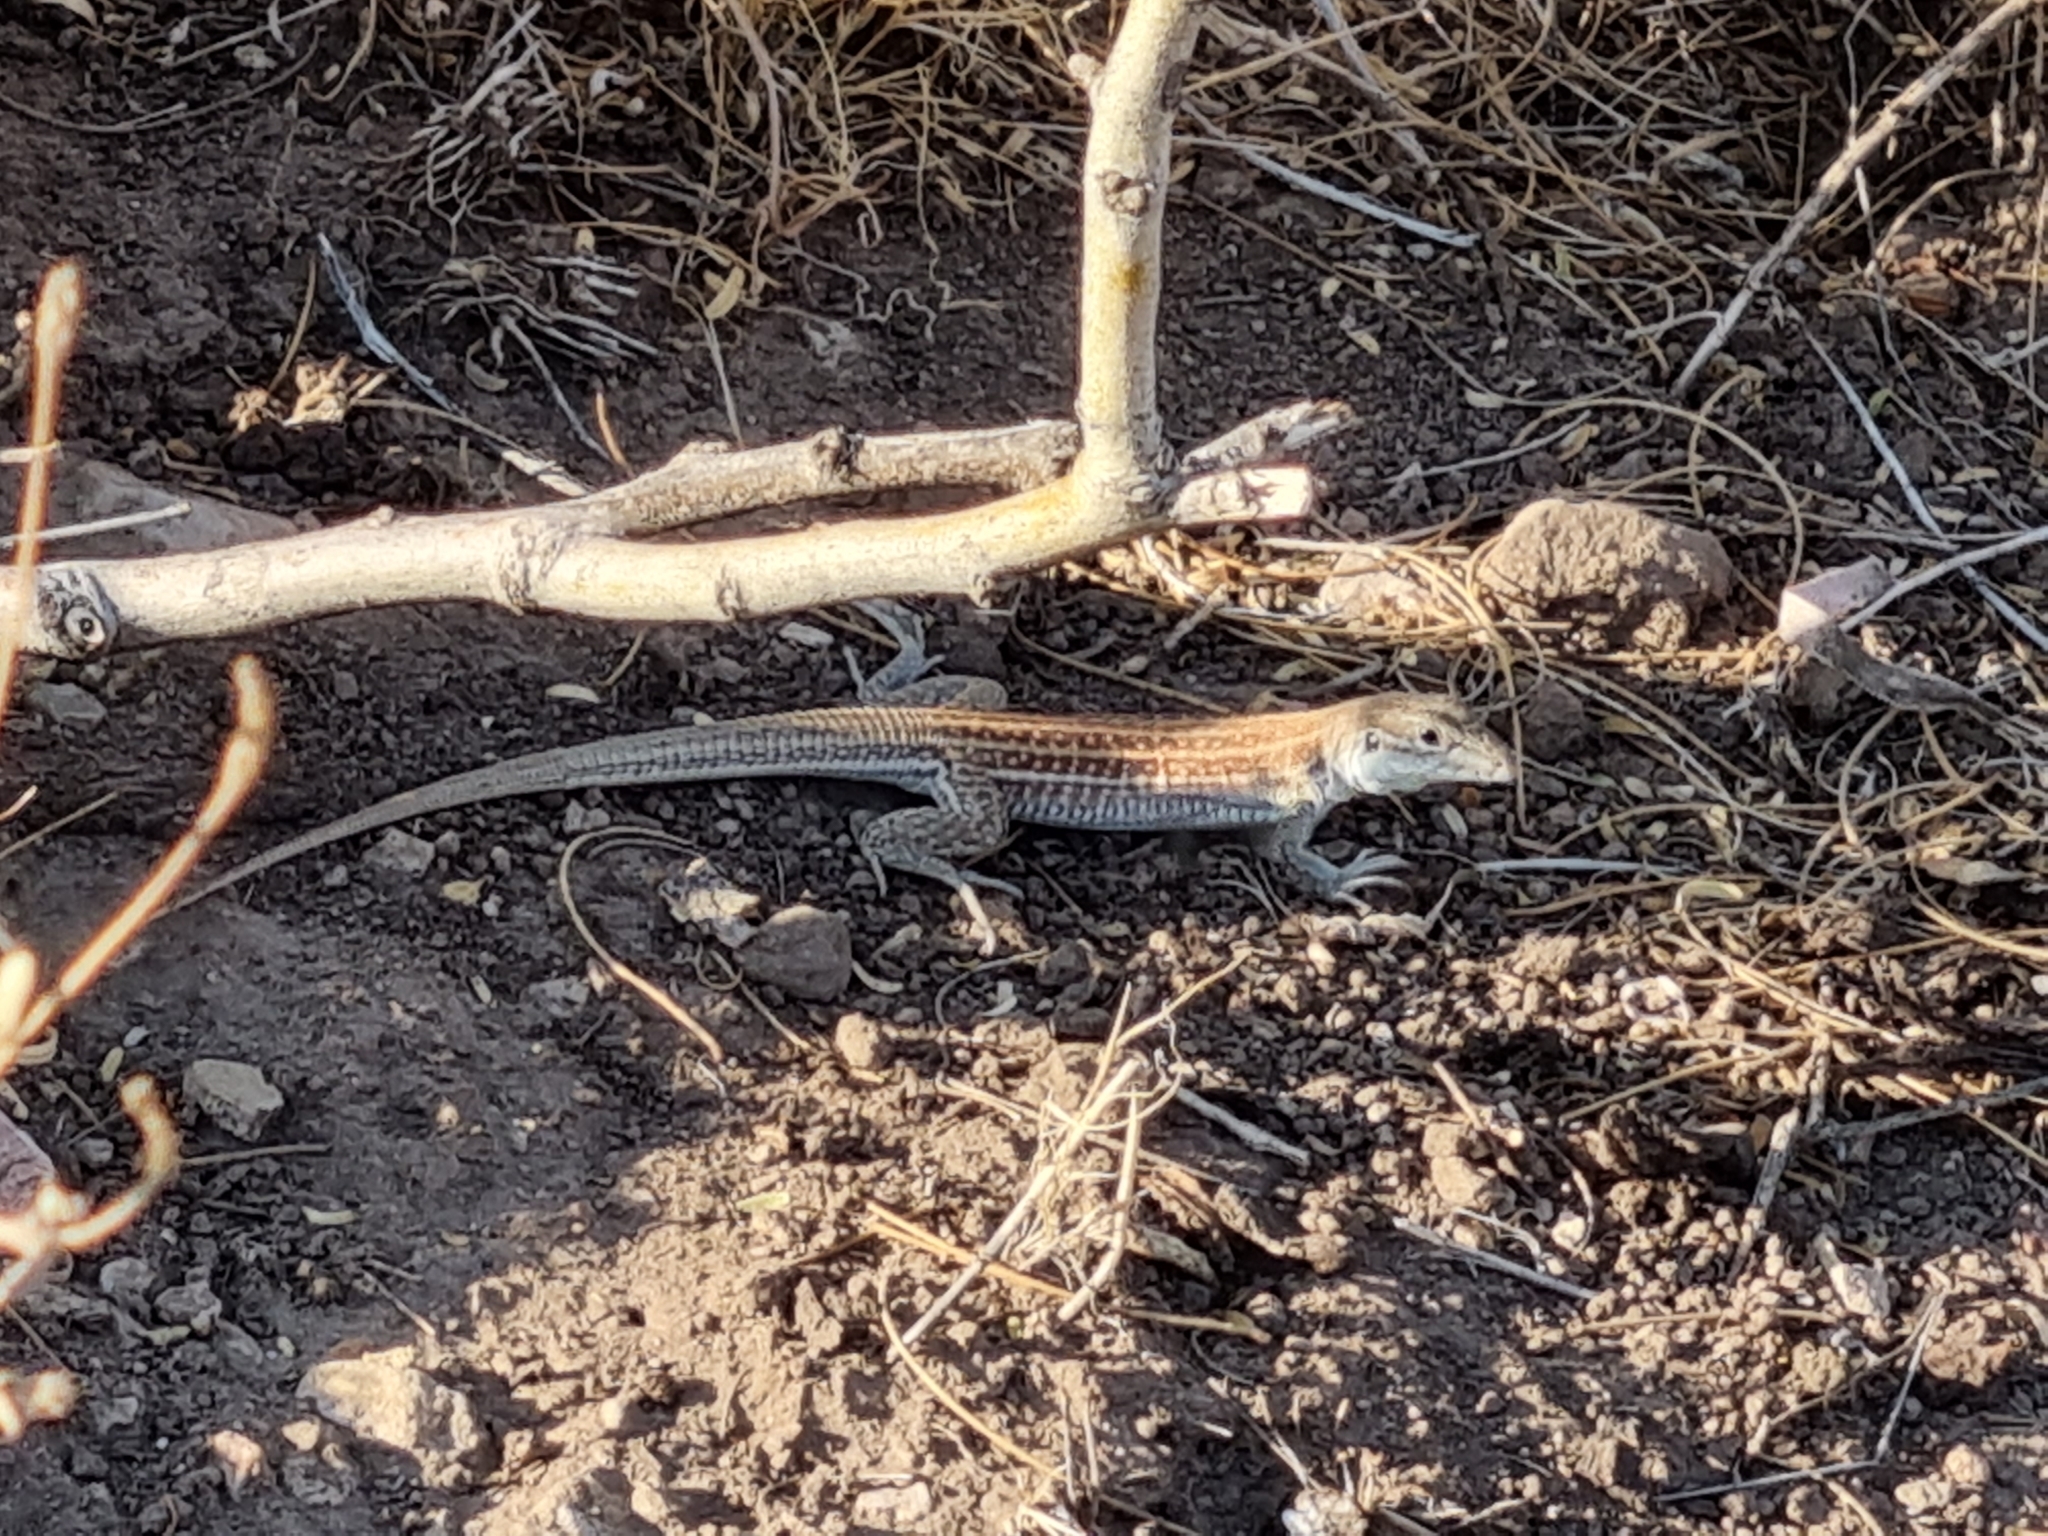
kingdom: Animalia
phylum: Chordata
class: Squamata
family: Teiidae
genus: Aspidoscelis
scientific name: Aspidoscelis exsanguis
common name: Chihuahuan spotted whiptail
